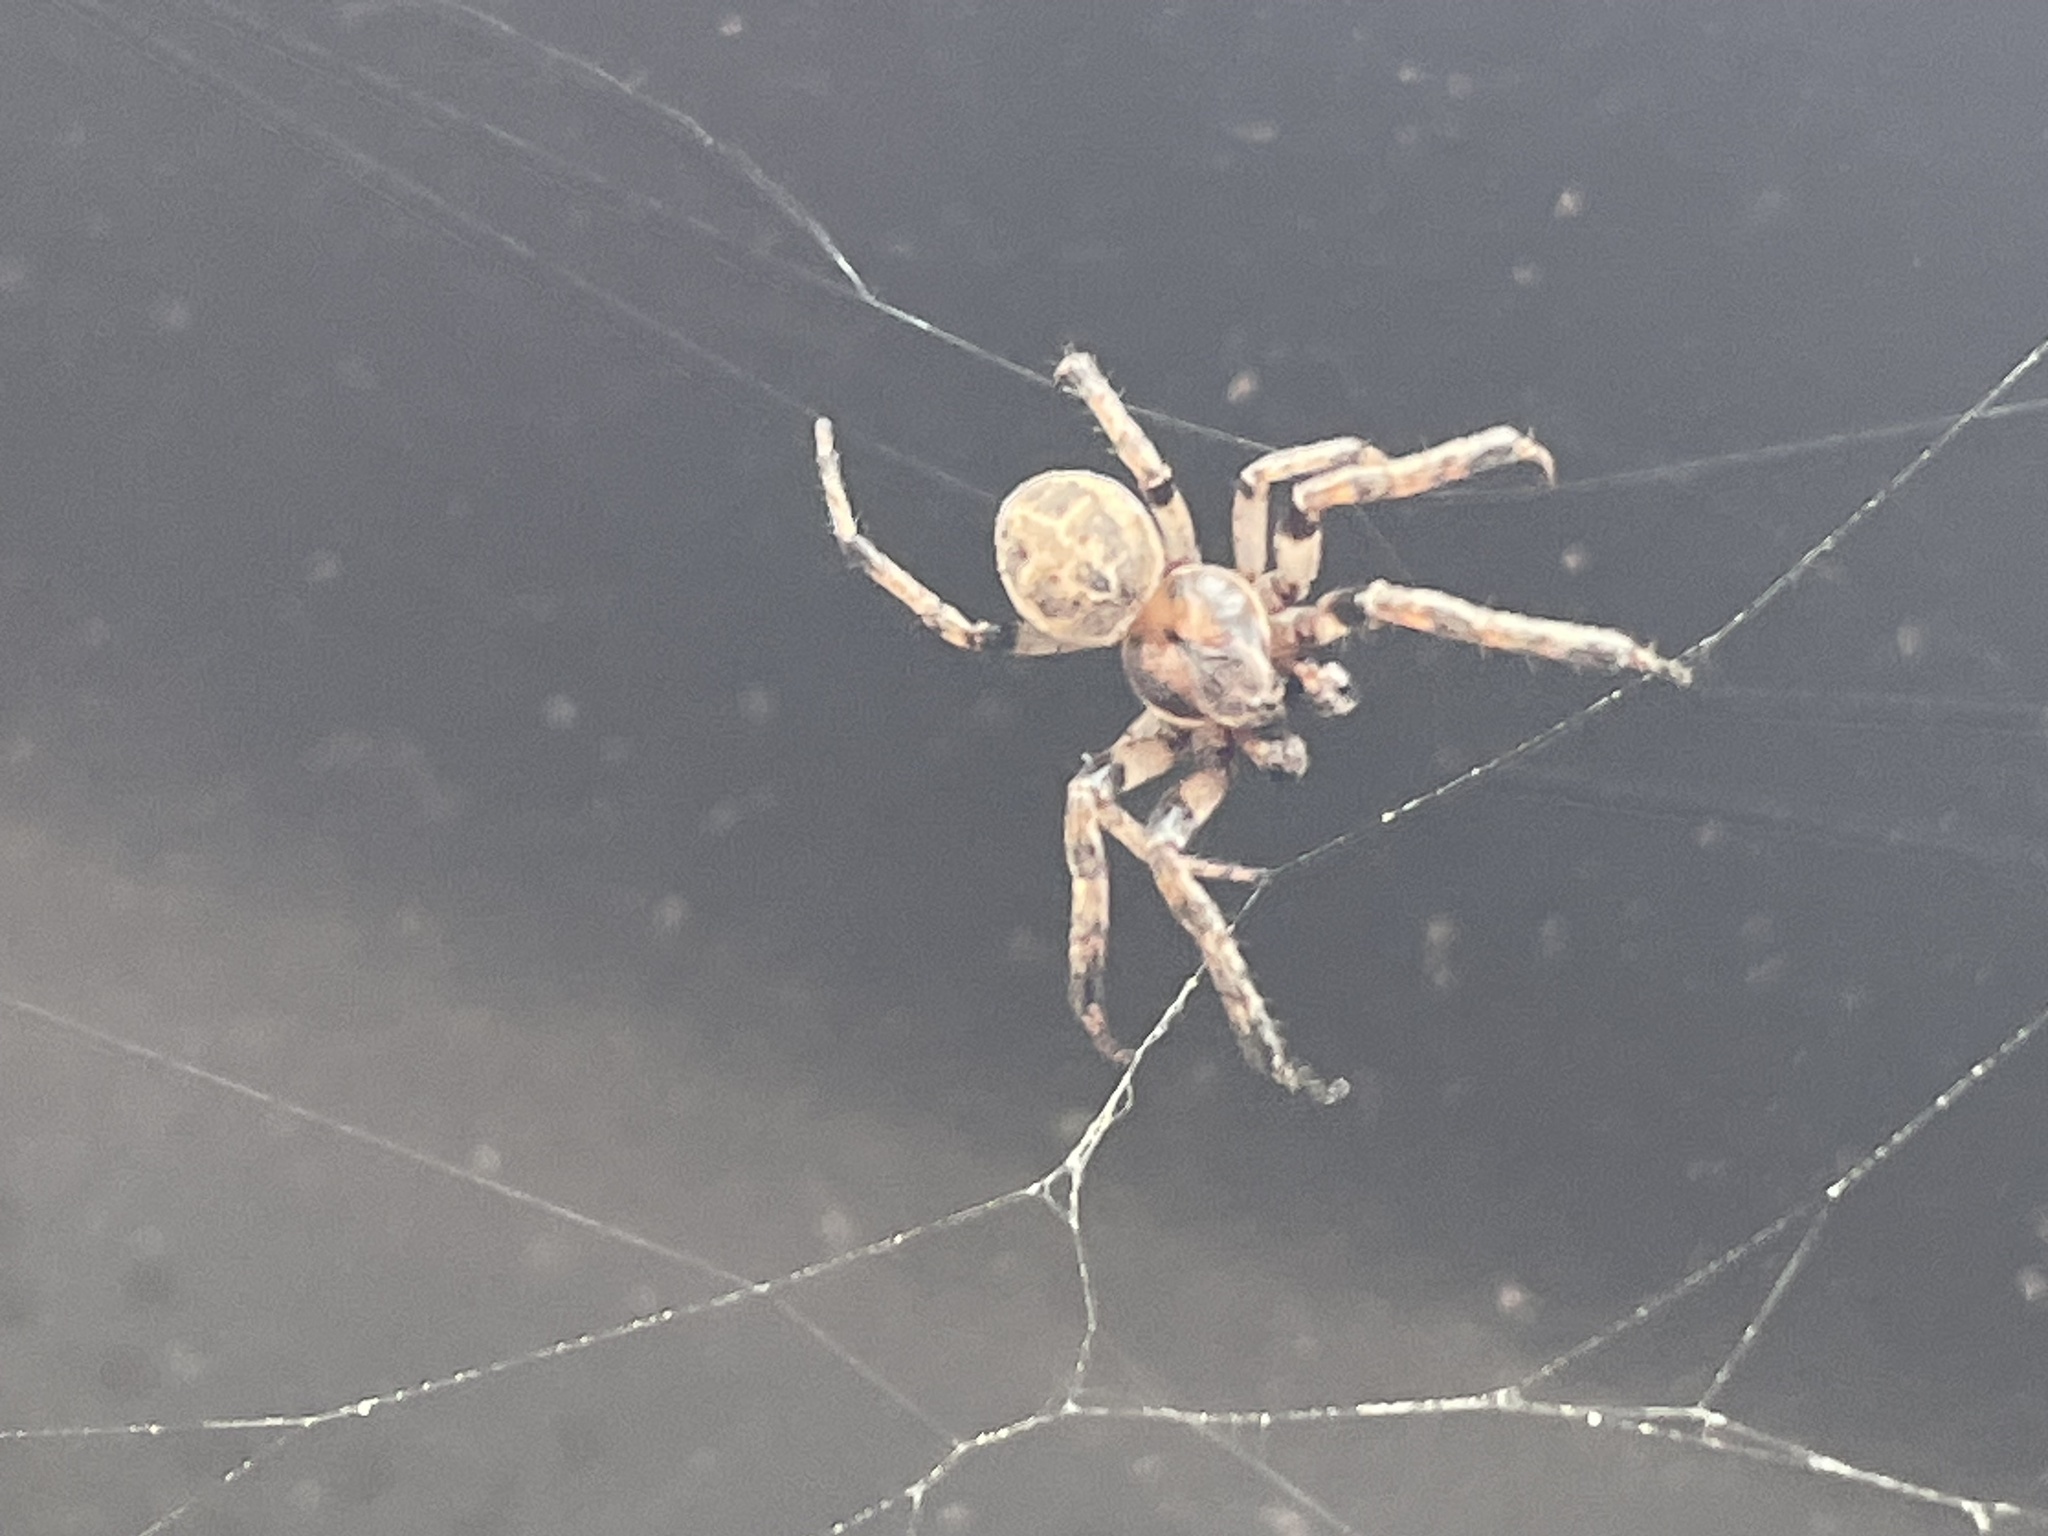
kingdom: Animalia
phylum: Arthropoda
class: Arachnida
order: Araneae
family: Araneidae
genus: Larinioides
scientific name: Larinioides cornutus
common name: Furrow orbweaver
